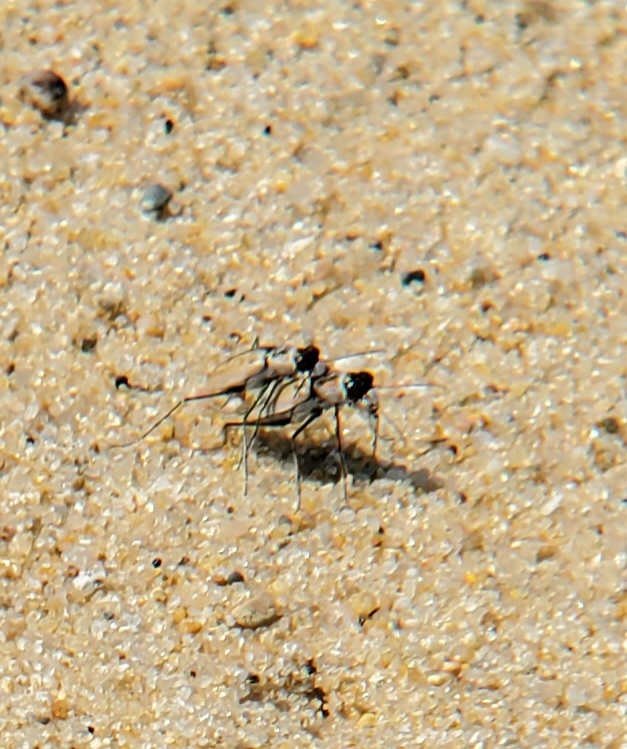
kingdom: Animalia
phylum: Arthropoda
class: Insecta
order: Coleoptera
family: Carabidae
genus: Habroscelimorpha
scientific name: Habroscelimorpha dorsalis
